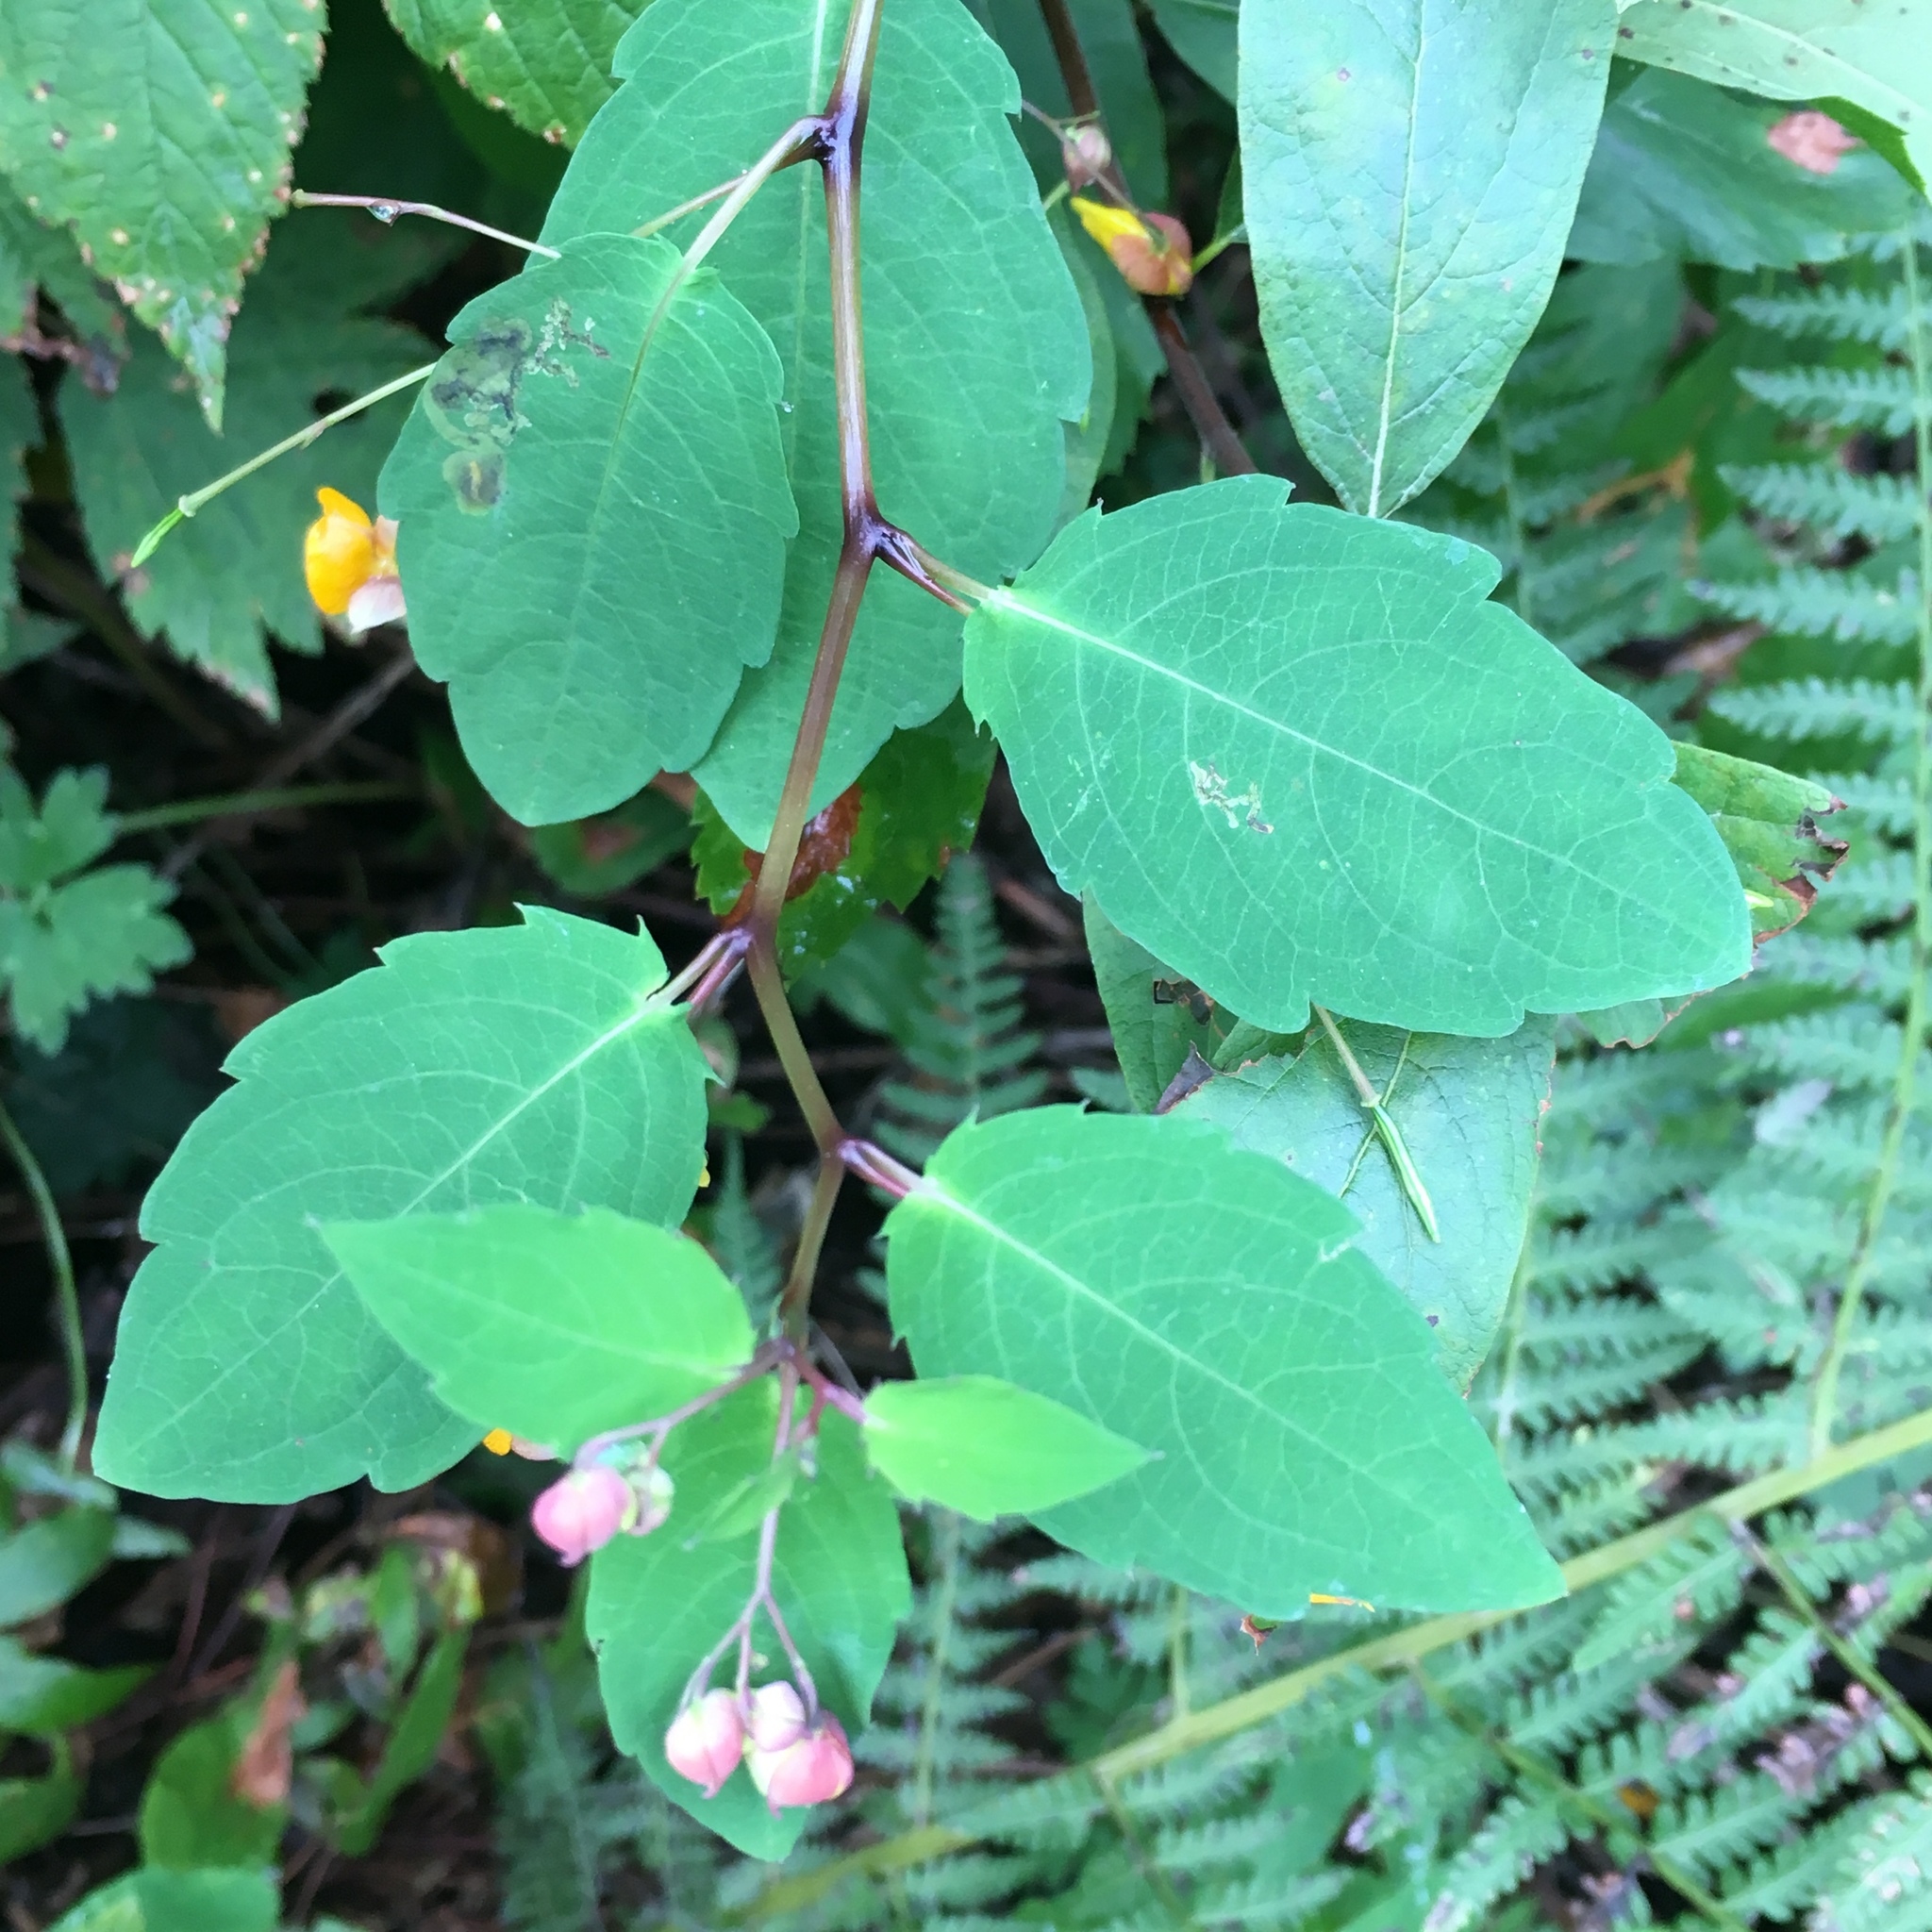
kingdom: Plantae
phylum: Tracheophyta
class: Magnoliopsida
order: Ericales
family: Balsaminaceae
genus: Impatiens
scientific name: Impatiens capensis
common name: Orange balsam
